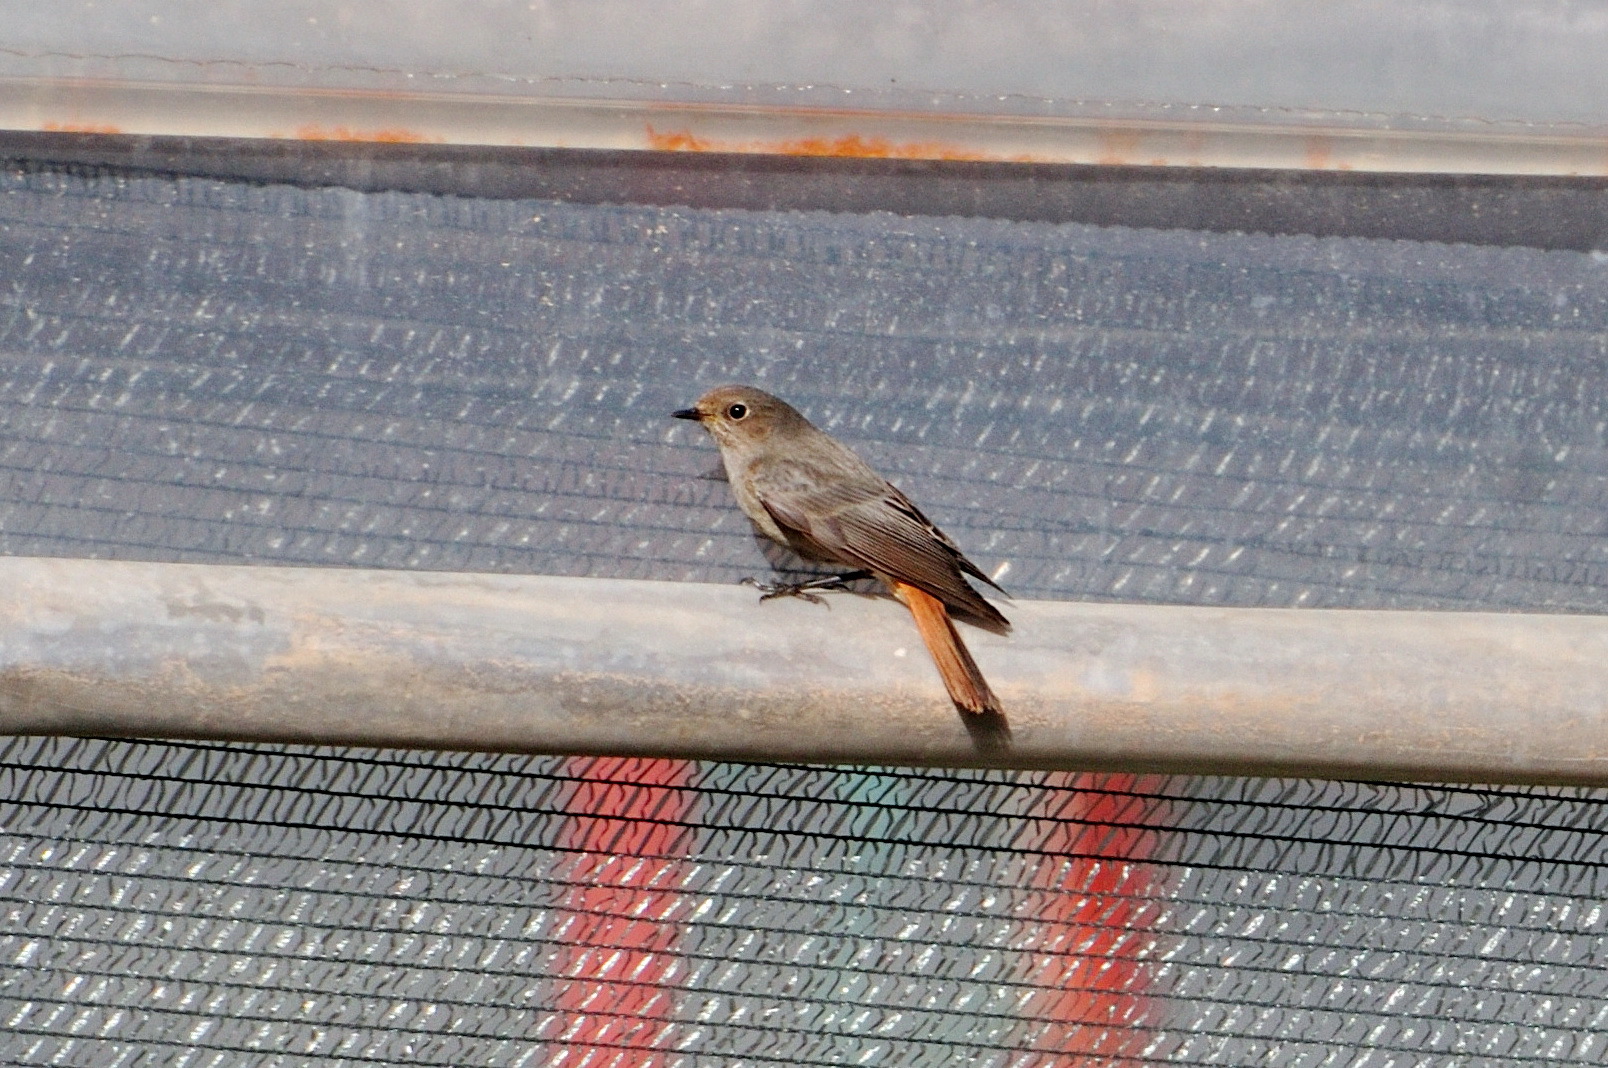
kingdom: Animalia
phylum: Chordata
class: Aves
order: Passeriformes
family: Muscicapidae
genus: Phoenicurus
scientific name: Phoenicurus ochruros
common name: Black redstart
